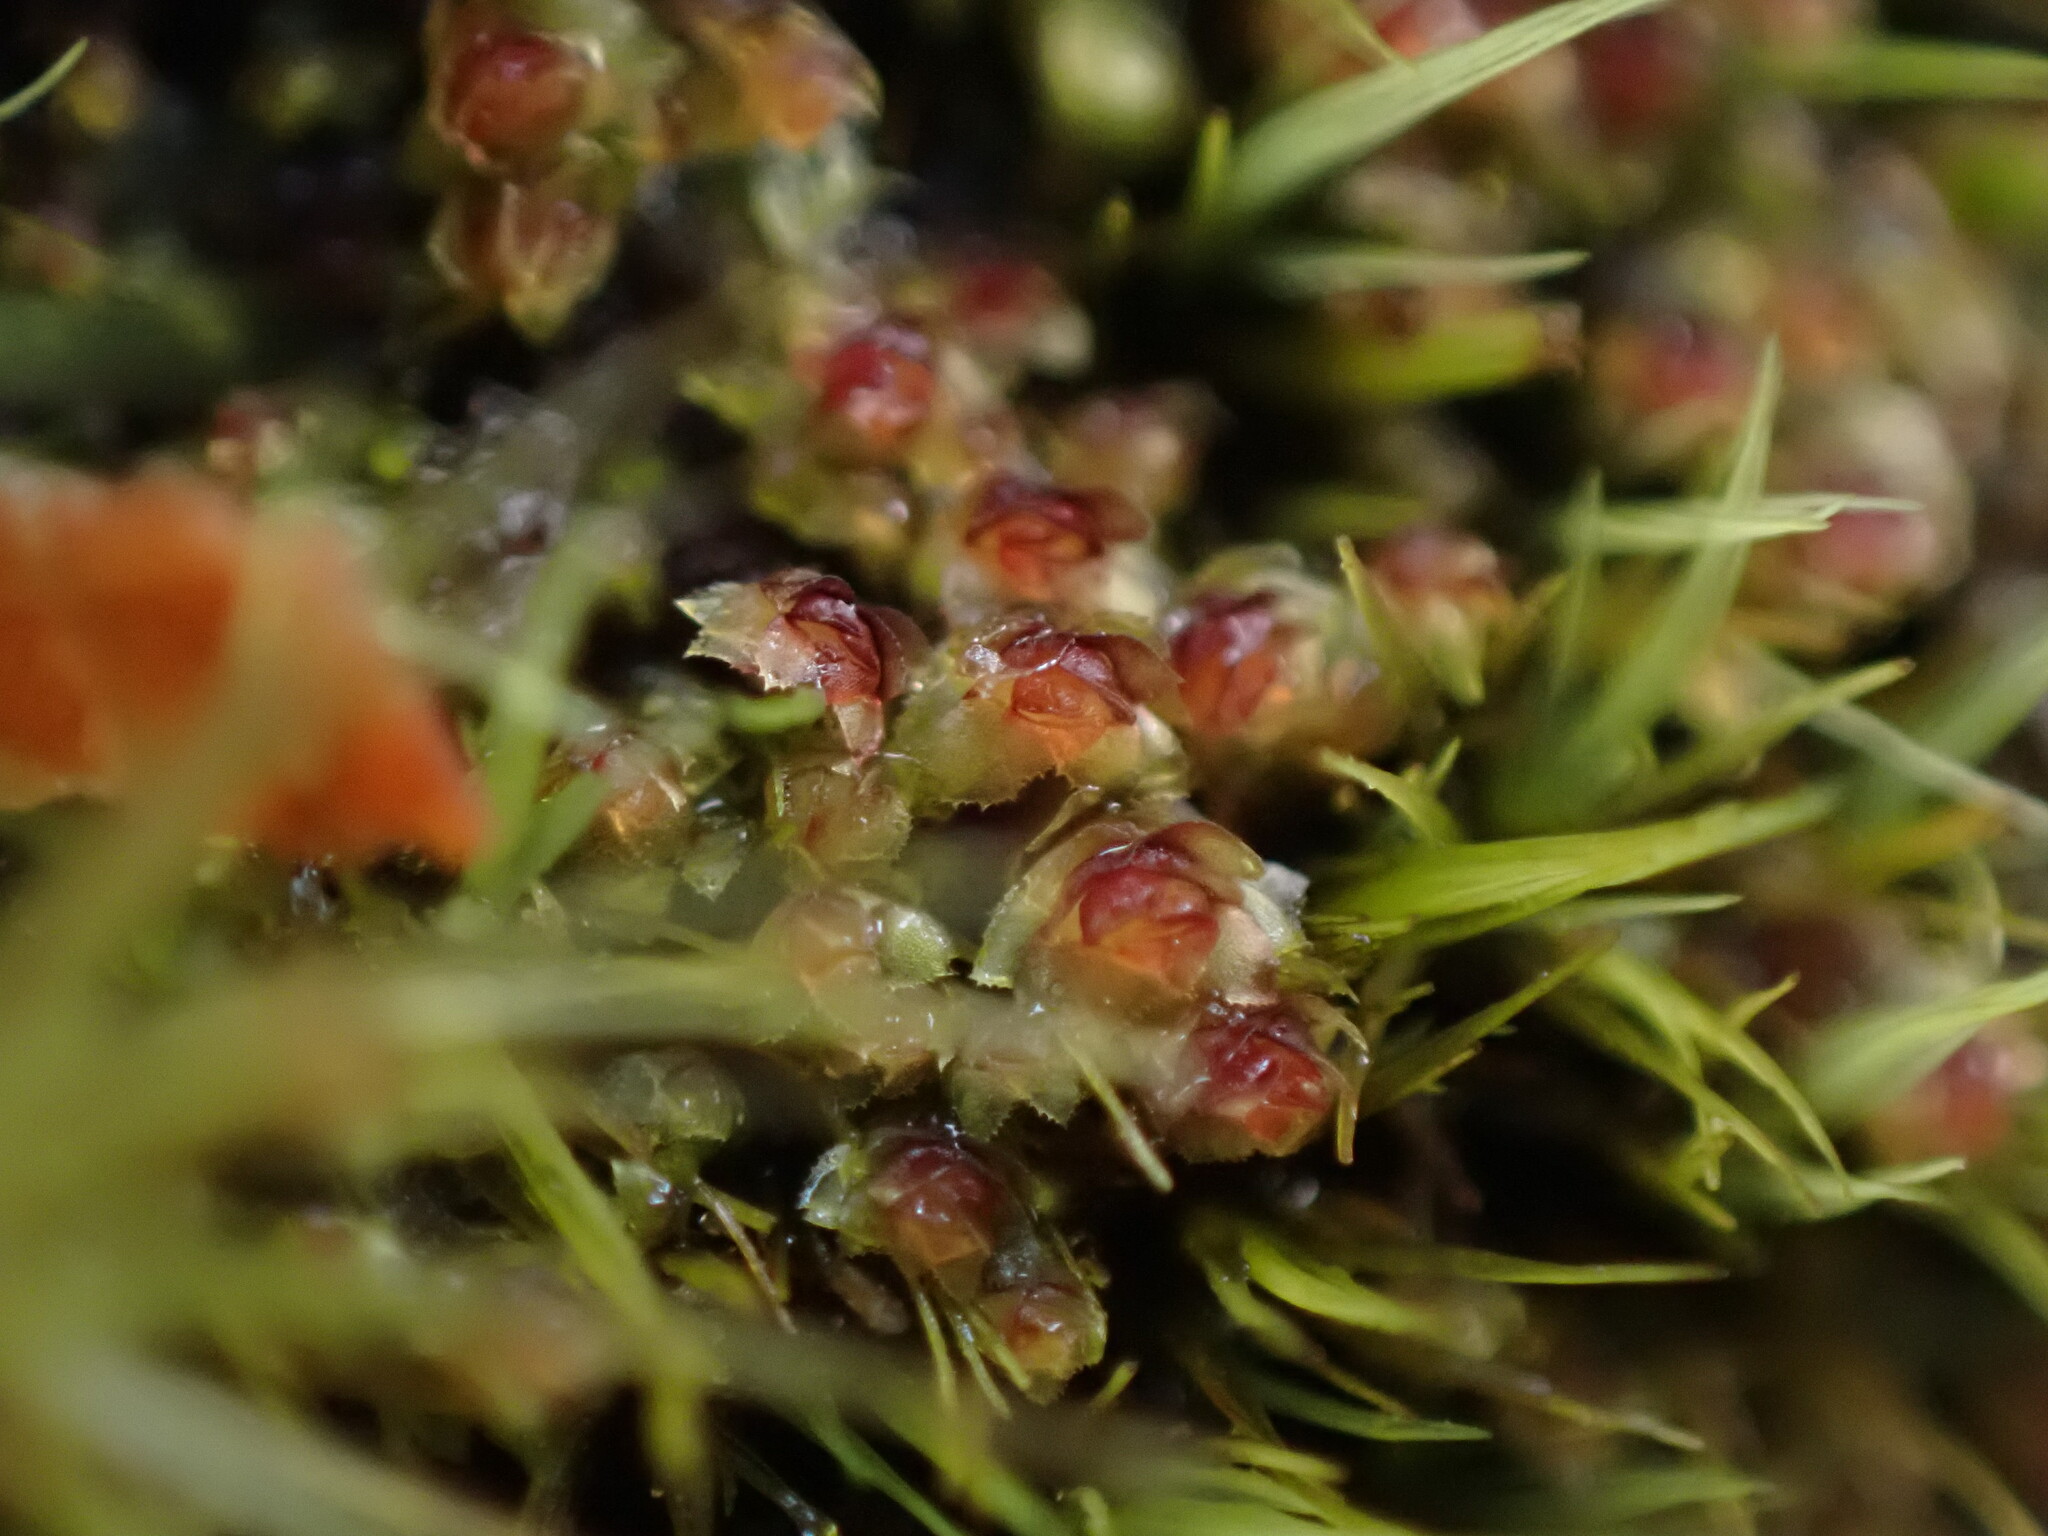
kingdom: Plantae
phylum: Marchantiophyta
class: Jungermanniopsida
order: Jungermanniales
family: Scapaniaceae
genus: Scapania
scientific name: Scapania umbrosa
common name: Shady earwort
